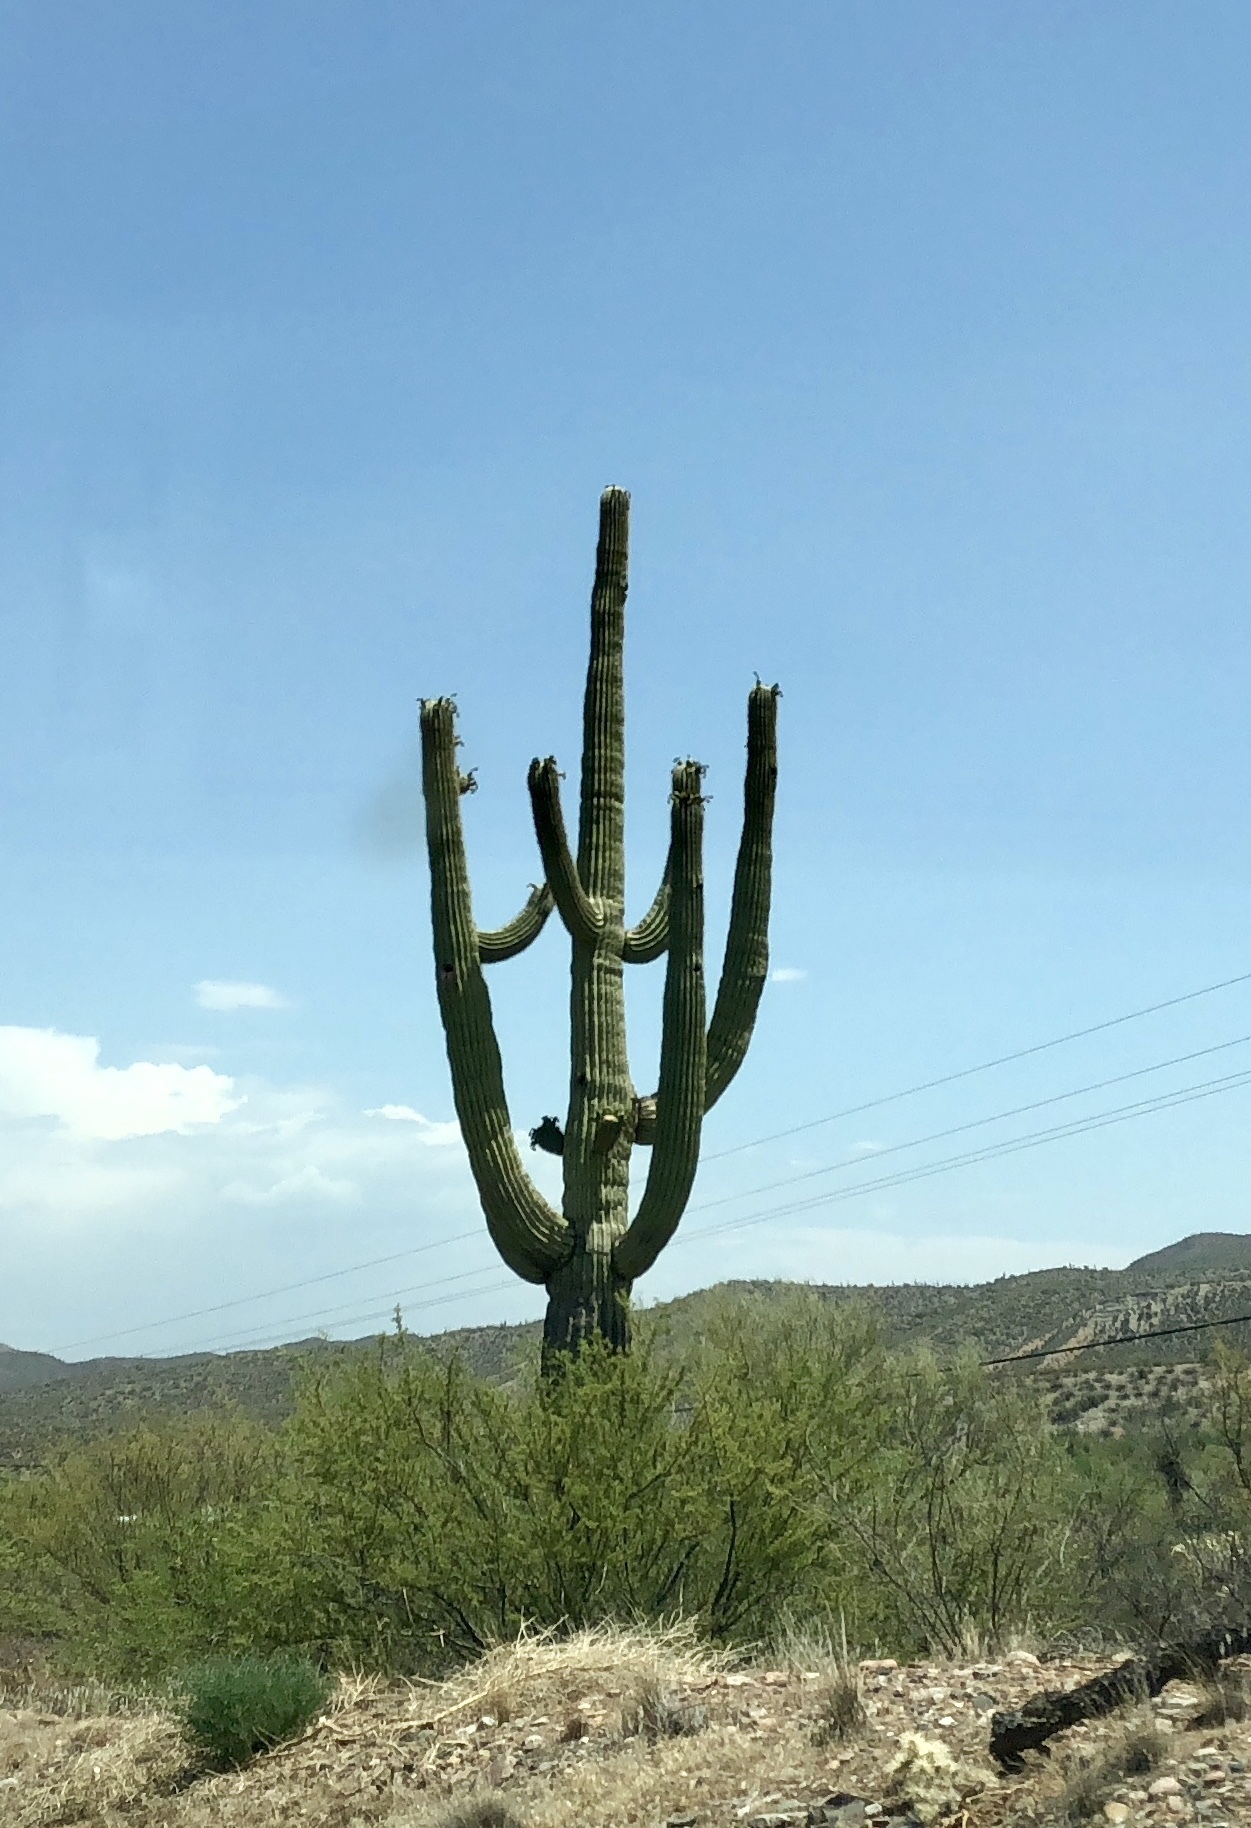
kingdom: Plantae
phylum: Tracheophyta
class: Magnoliopsida
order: Caryophyllales
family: Cactaceae
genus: Carnegiea
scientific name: Carnegiea gigantea
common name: Saguaro
